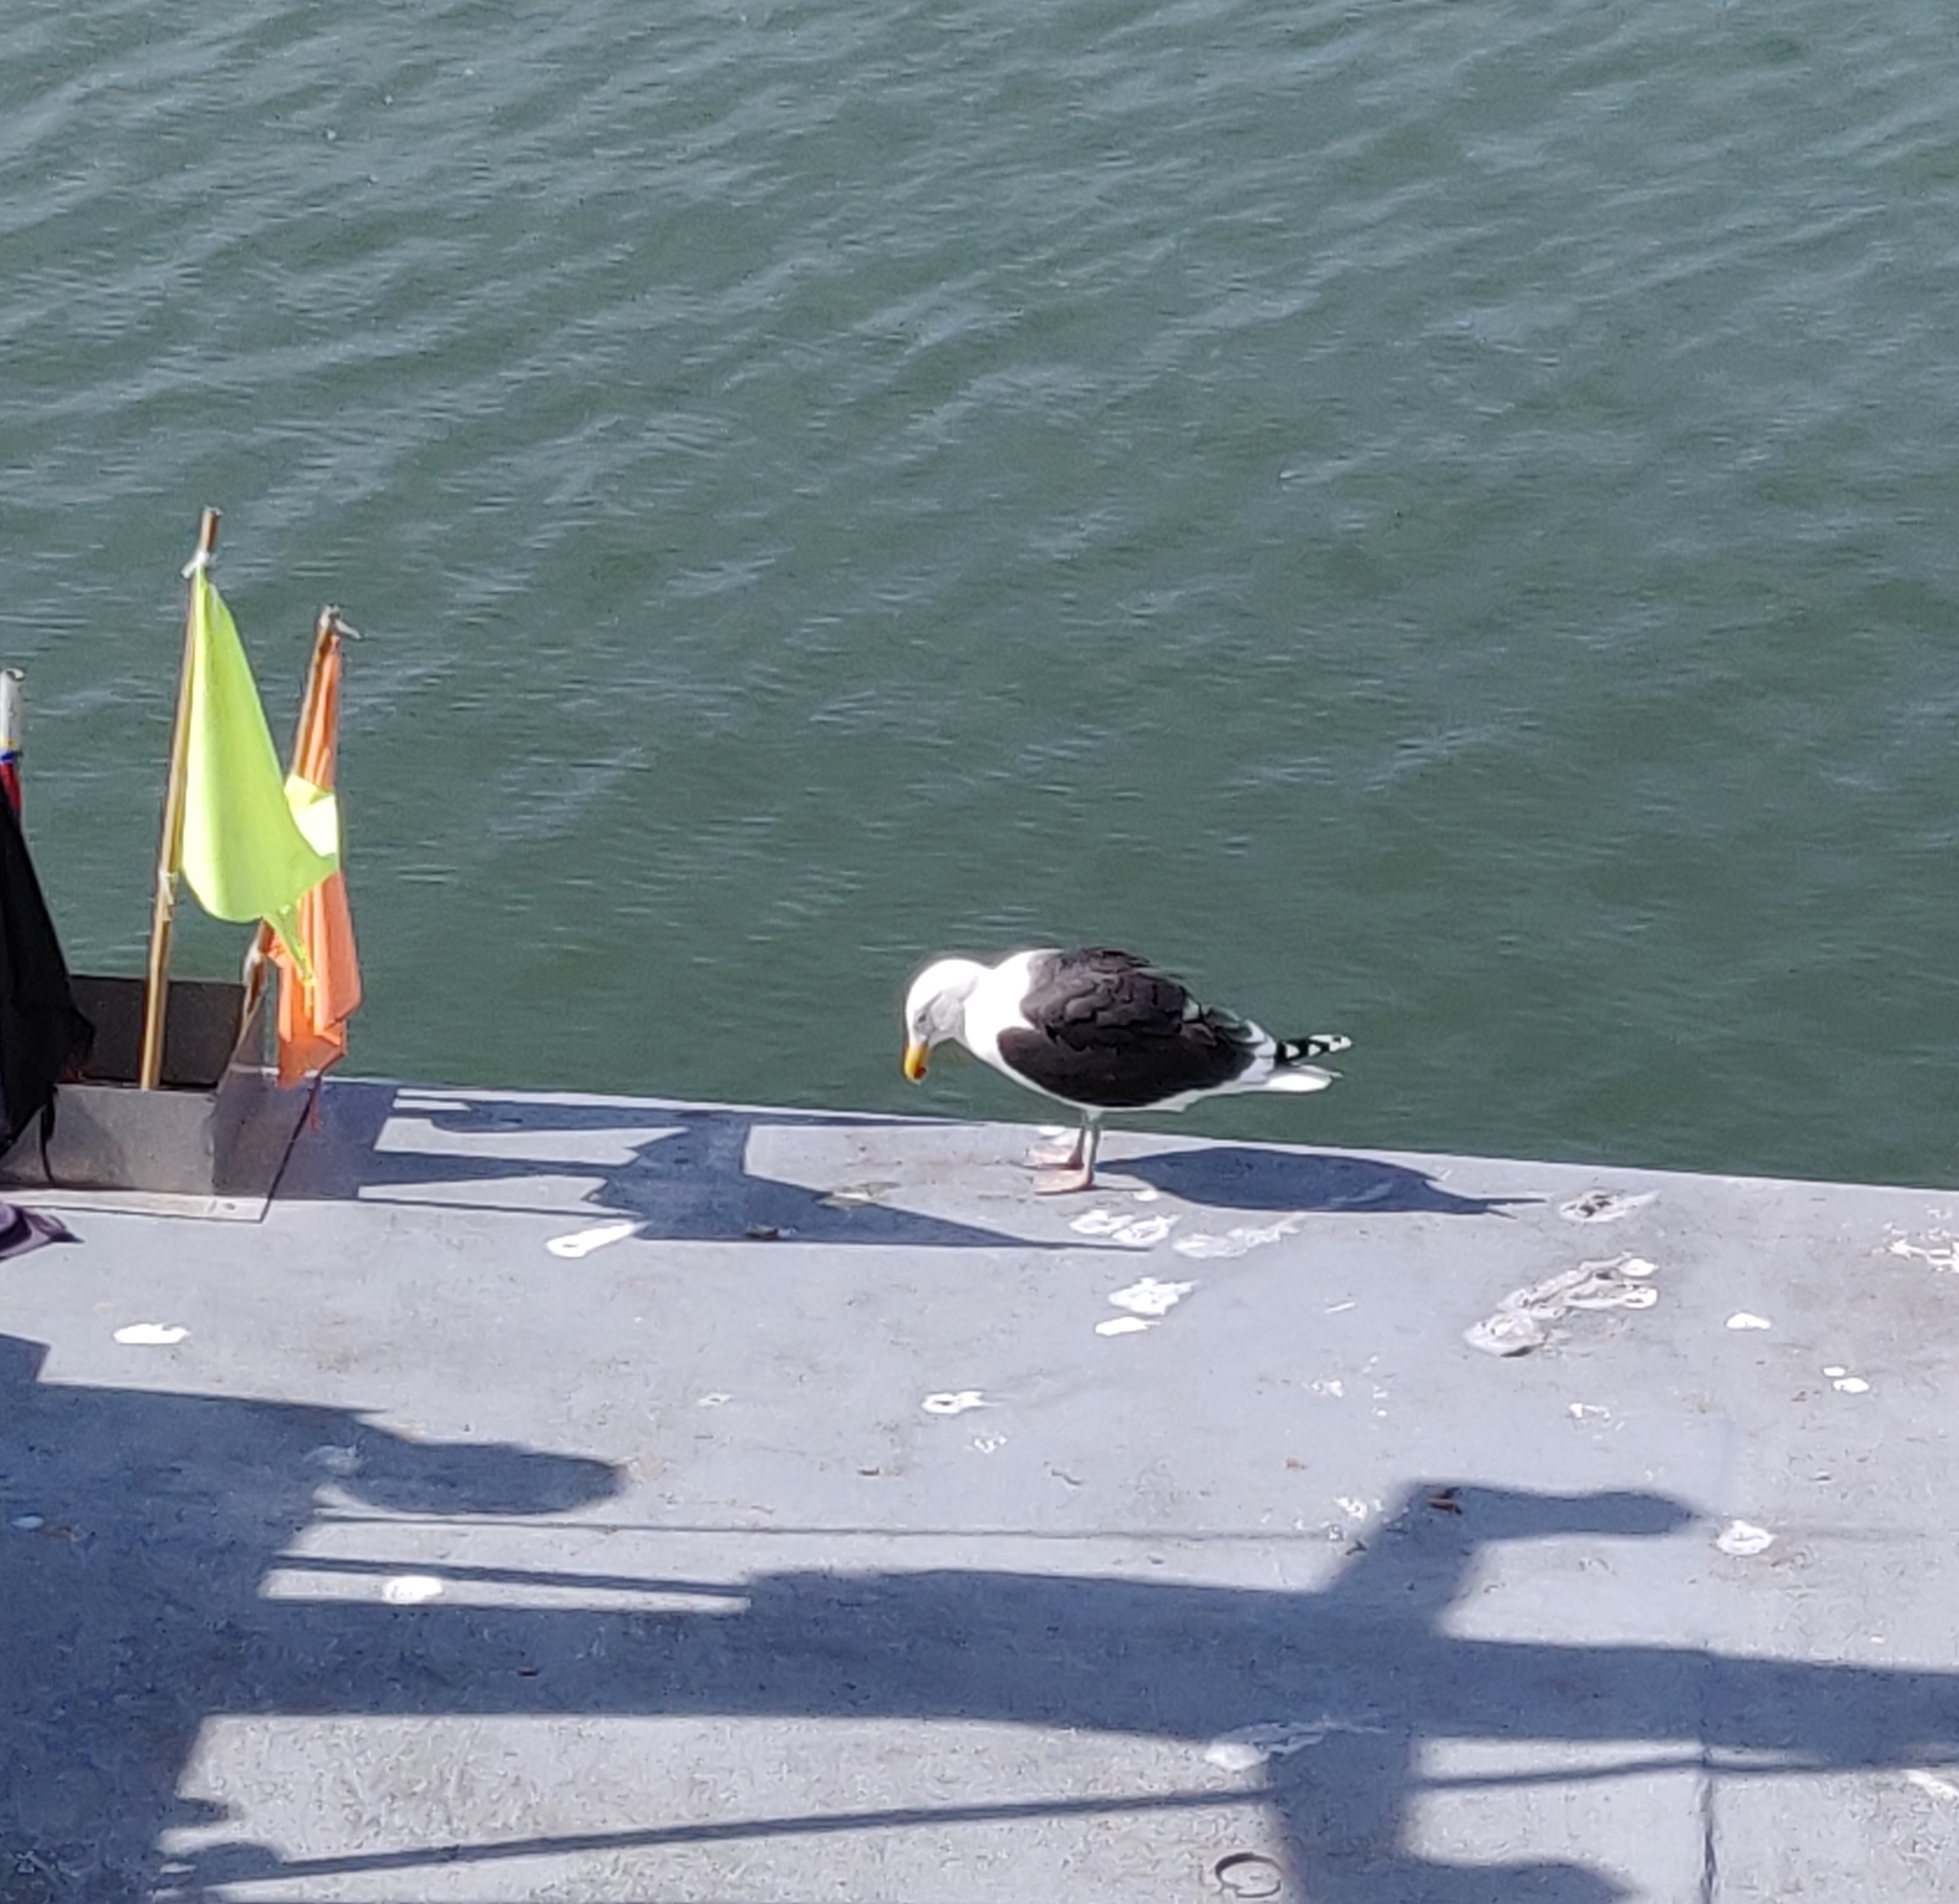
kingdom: Animalia
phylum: Chordata
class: Aves
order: Charadriiformes
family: Laridae
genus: Larus
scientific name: Larus marinus
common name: Great black-backed gull
